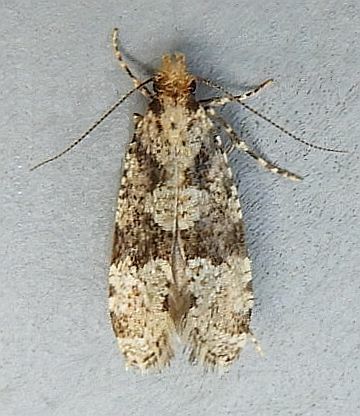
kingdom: Animalia
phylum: Arthropoda
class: Insecta
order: Lepidoptera
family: Tineidae
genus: Scardiella
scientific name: Scardiella approximatella
